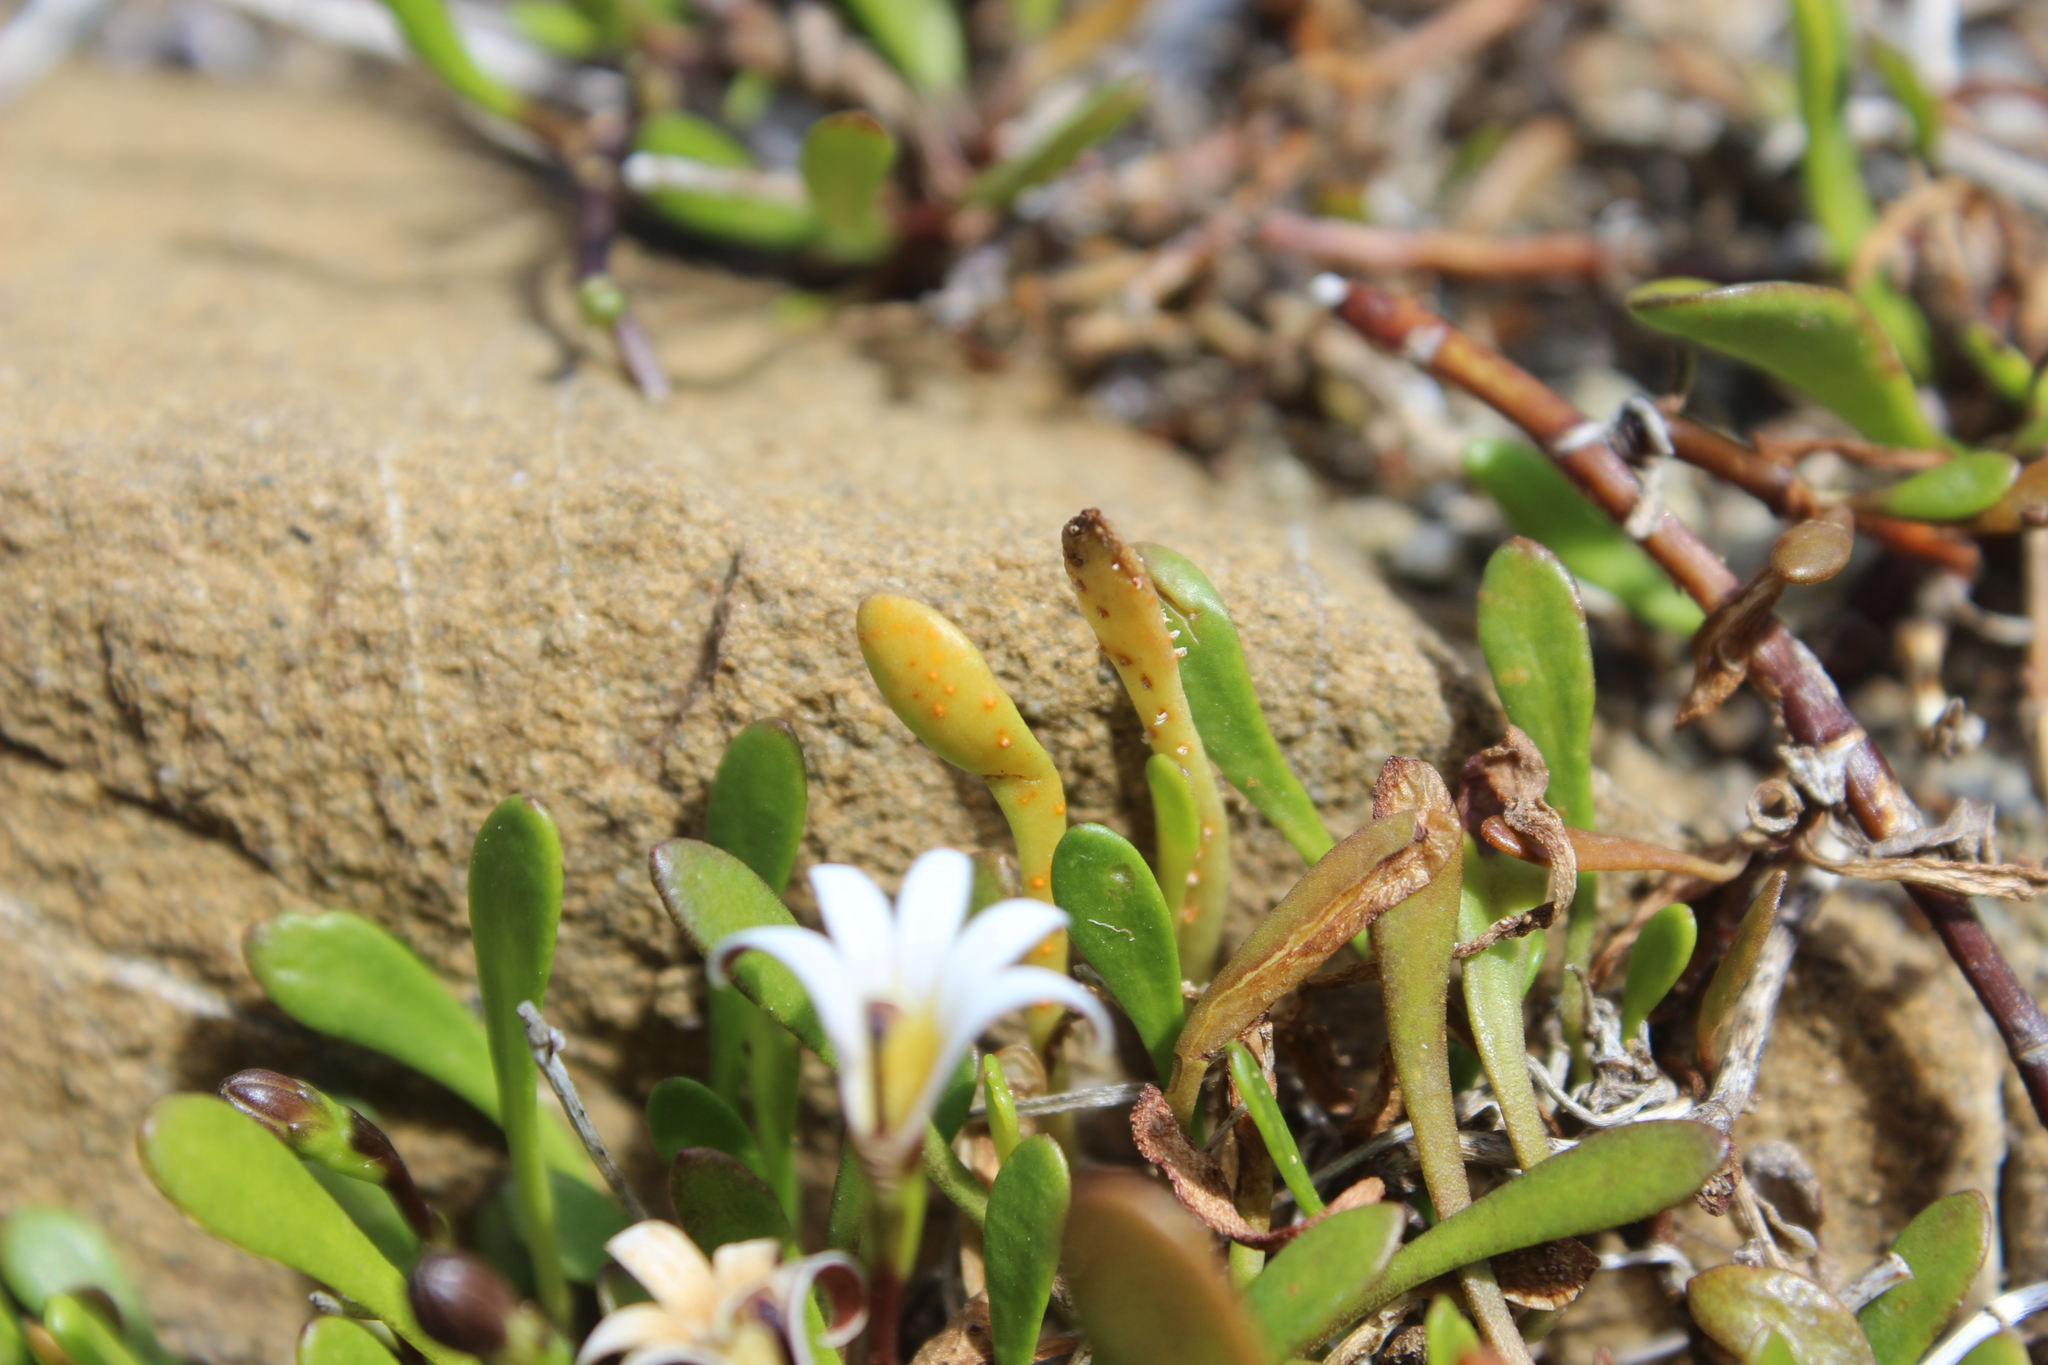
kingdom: Fungi
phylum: Basidiomycota
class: Pucciniomycetes
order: Pucciniales
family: Pucciniaceae
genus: Uromyces
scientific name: Uromyces sellierae
